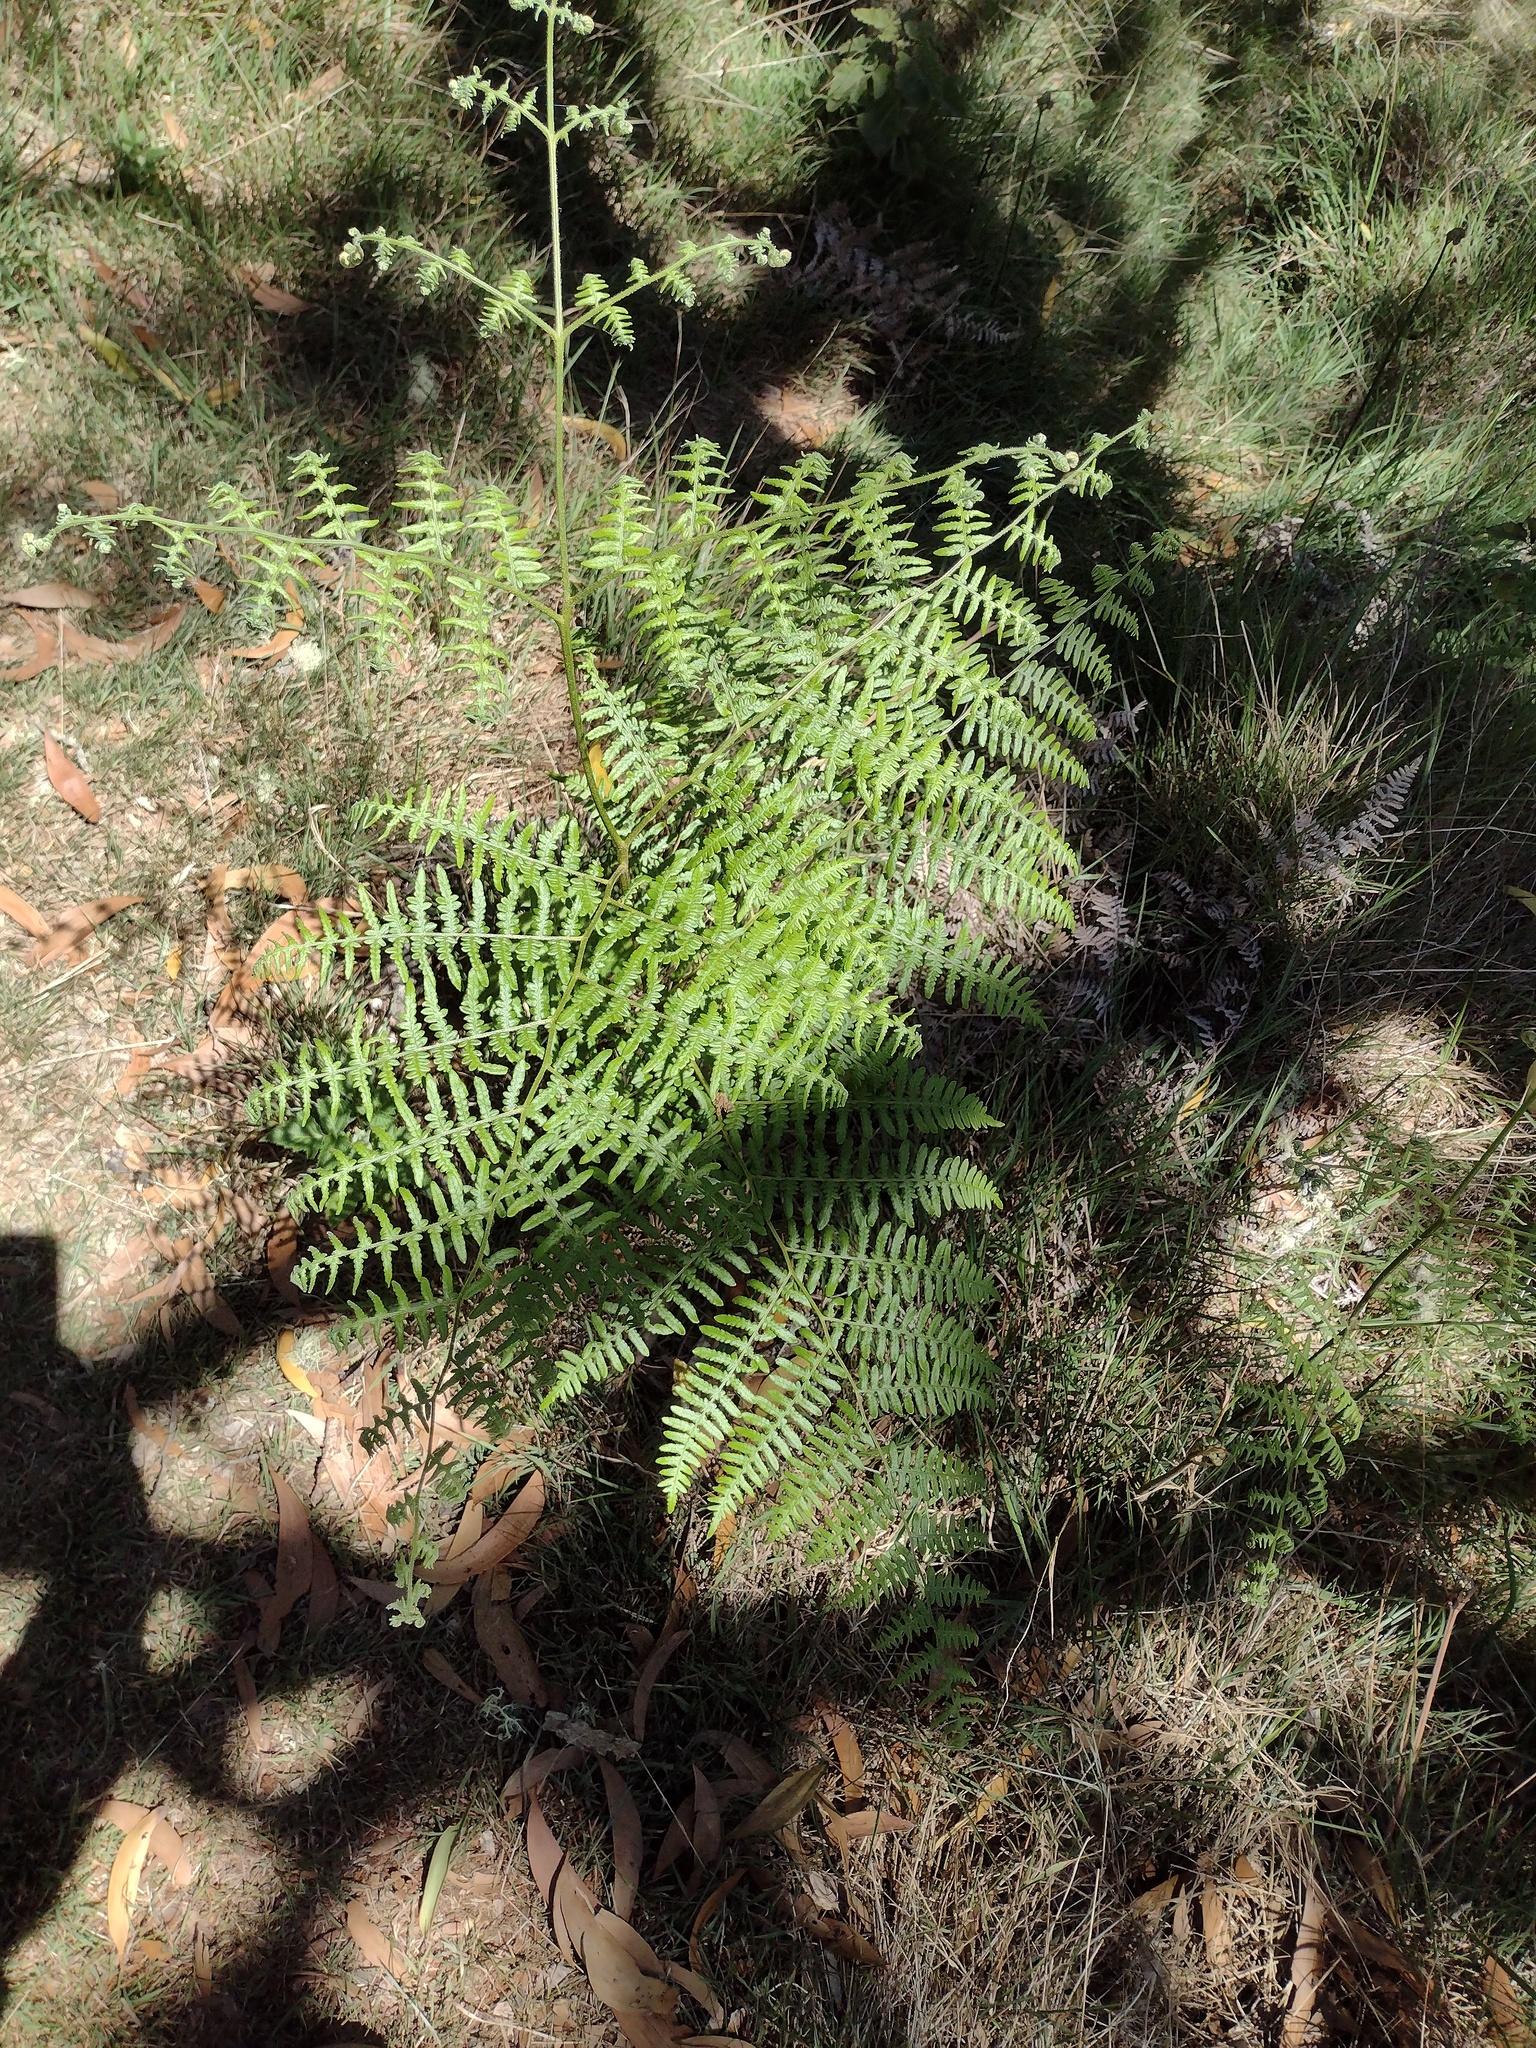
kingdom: Plantae
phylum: Tracheophyta
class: Polypodiopsida
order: Polypodiales
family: Dennstaedtiaceae
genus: Pteridium
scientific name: Pteridium aquilinum
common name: Bracken
